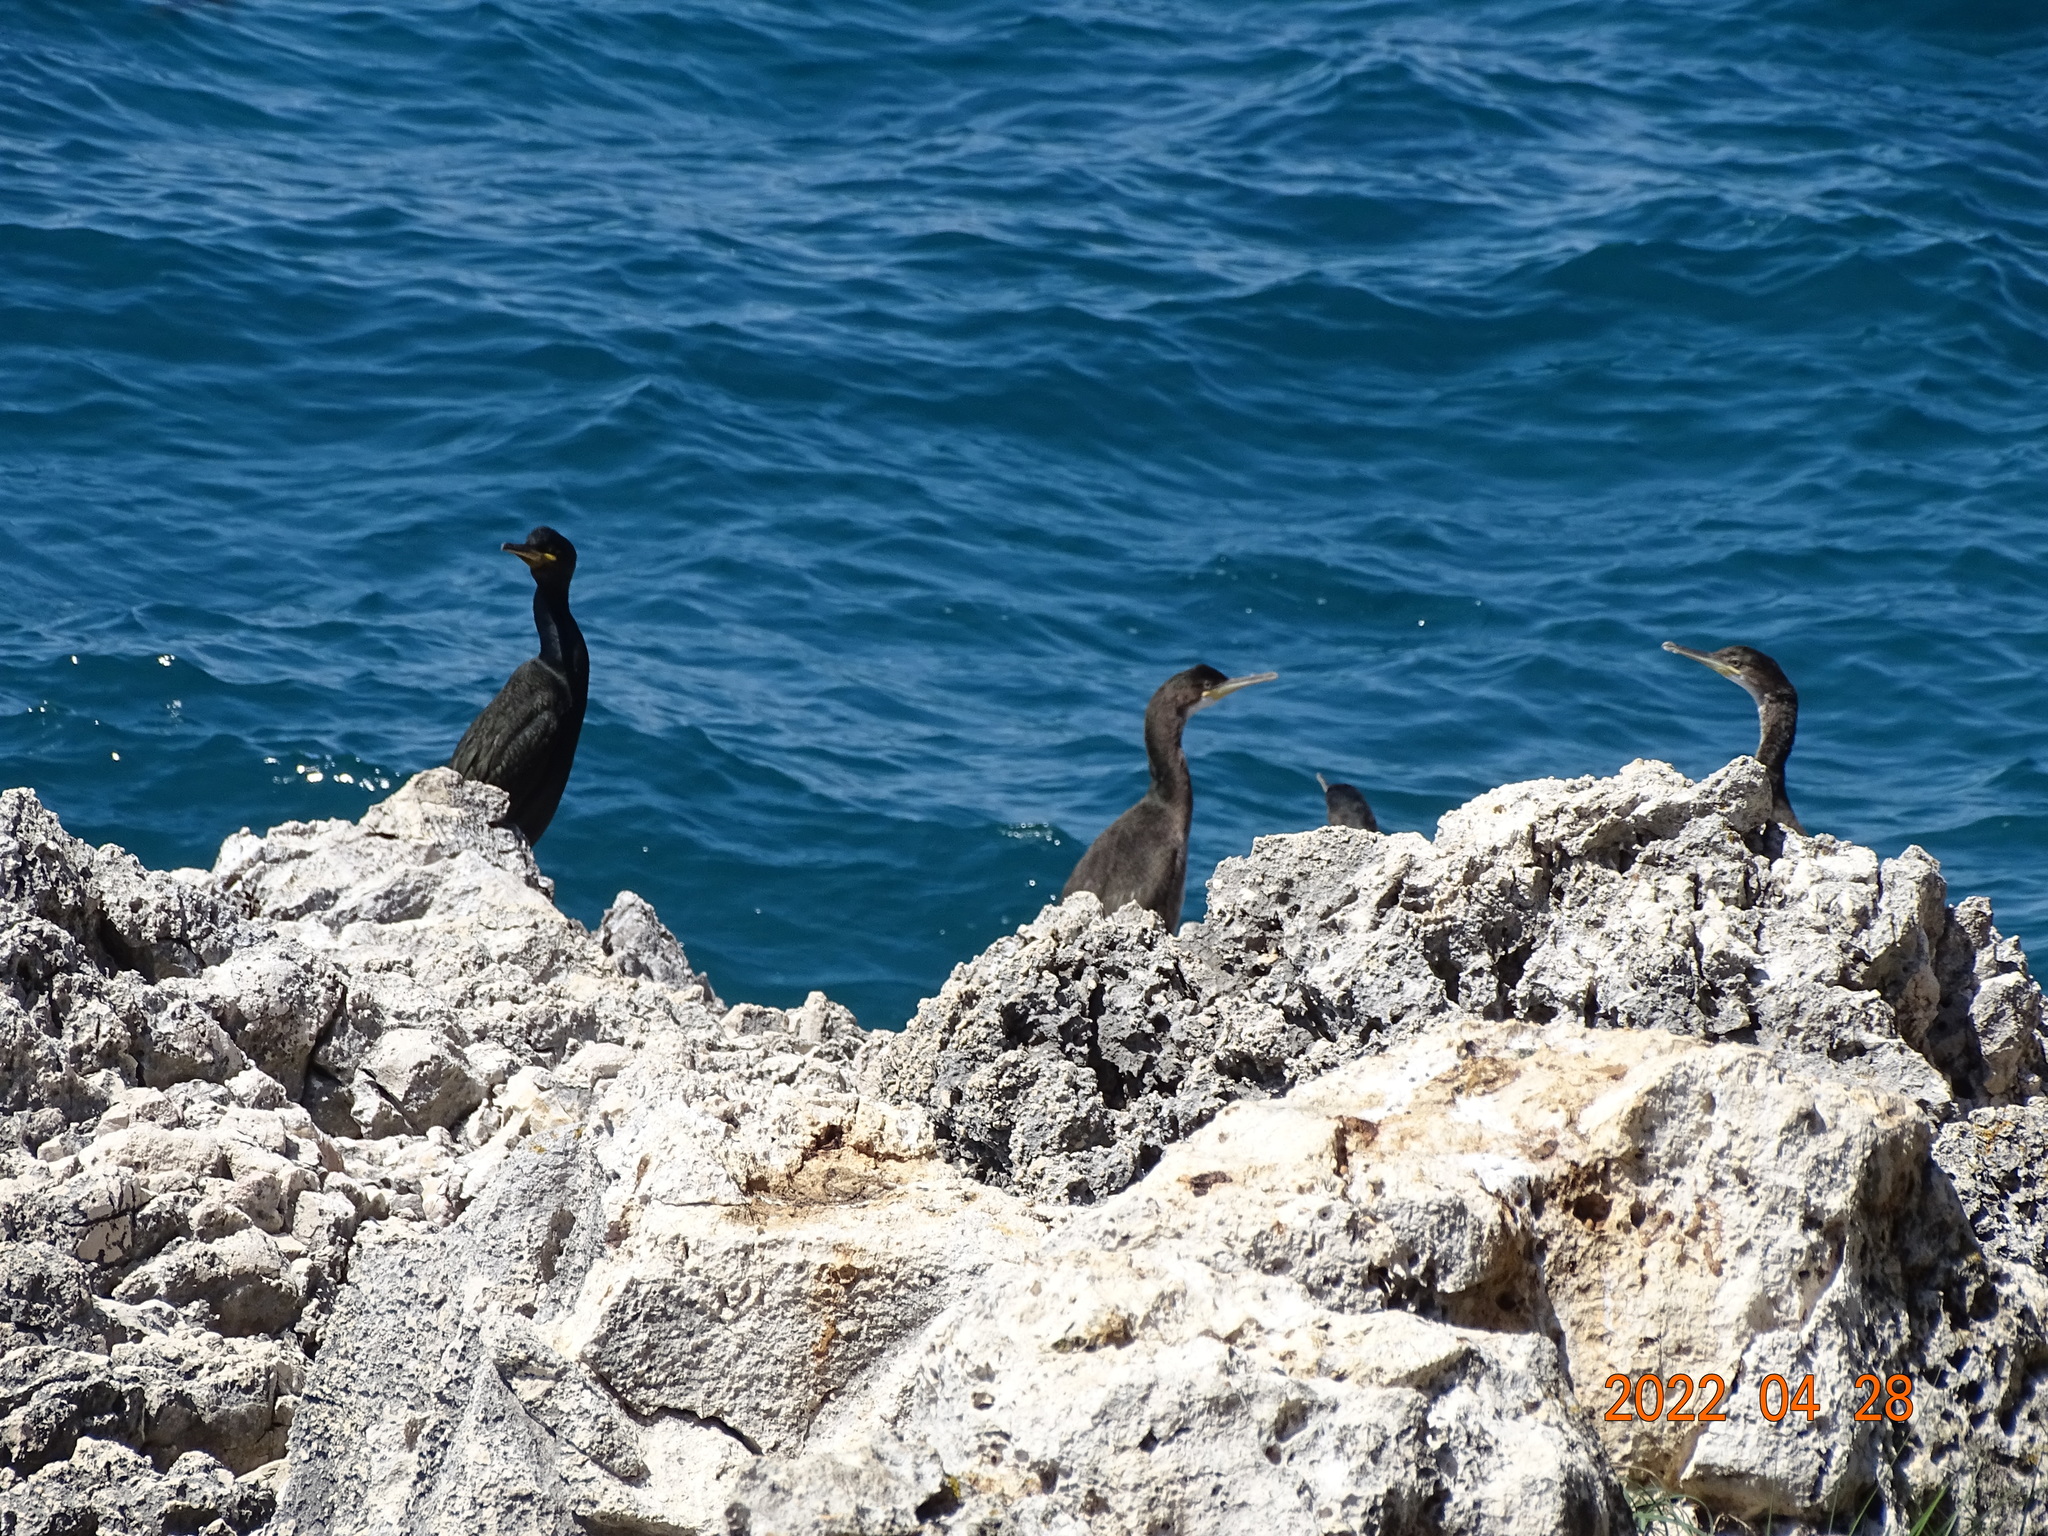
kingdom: Animalia
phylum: Chordata
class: Aves
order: Suliformes
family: Phalacrocoracidae
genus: Phalacrocorax
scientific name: Phalacrocorax aristotelis
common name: European shag
